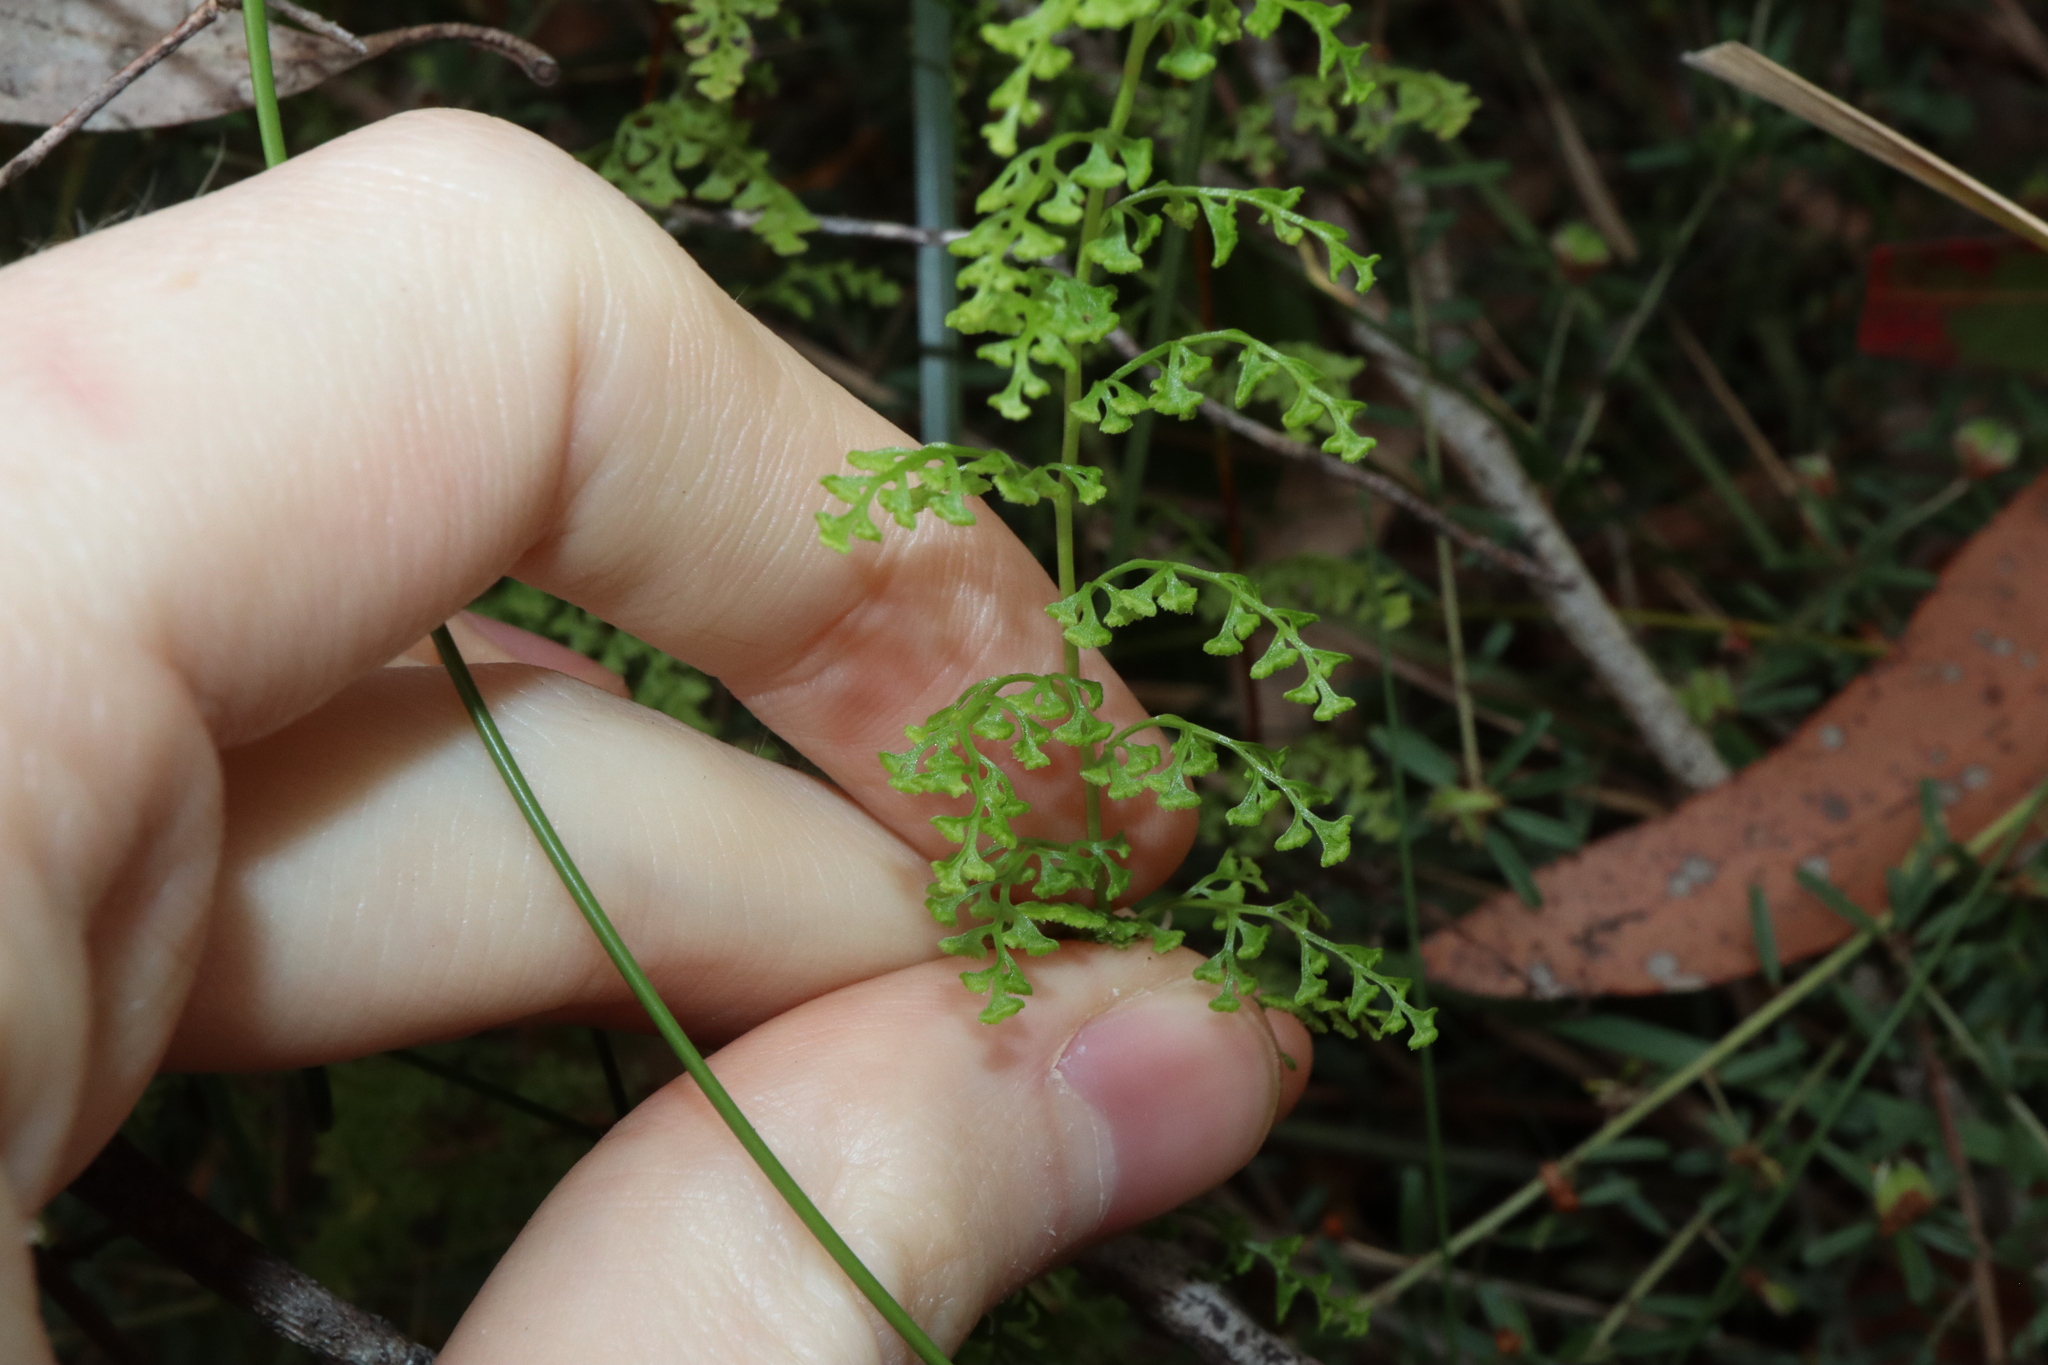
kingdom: Plantae
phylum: Tracheophyta
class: Polypodiopsida
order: Polypodiales
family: Lindsaeaceae
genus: Lindsaea
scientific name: Lindsaea microphylla
